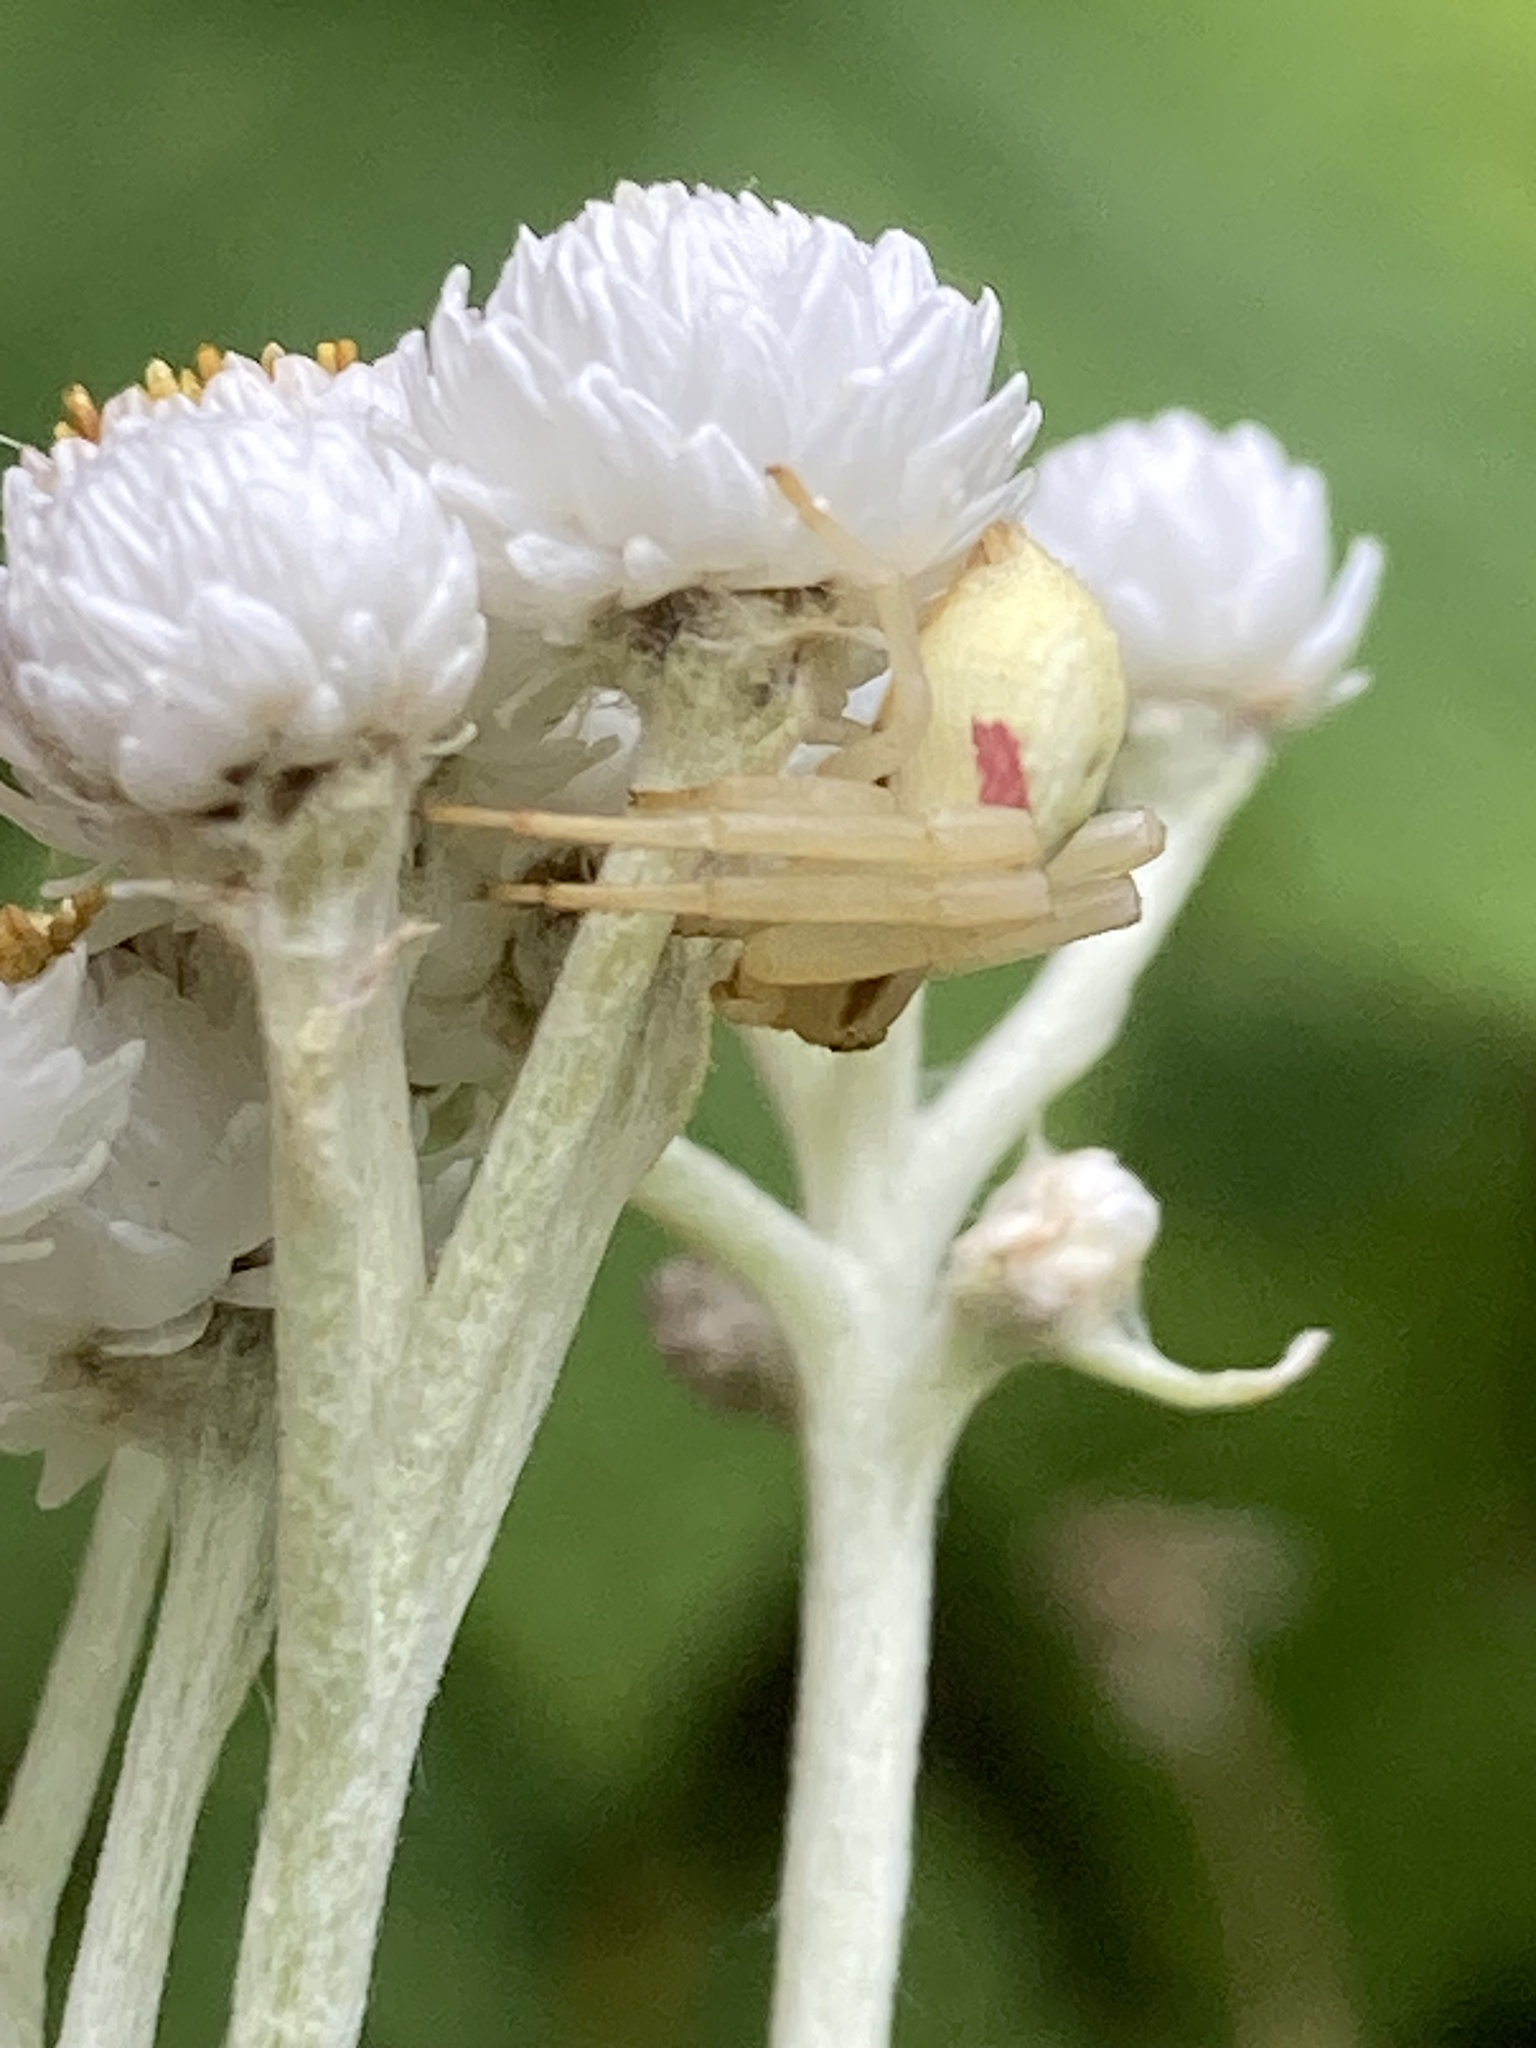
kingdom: Plantae
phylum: Tracheophyta
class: Magnoliopsida
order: Asterales
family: Asteraceae
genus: Anaphalis
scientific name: Anaphalis margaritacea
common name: Pearly everlasting
